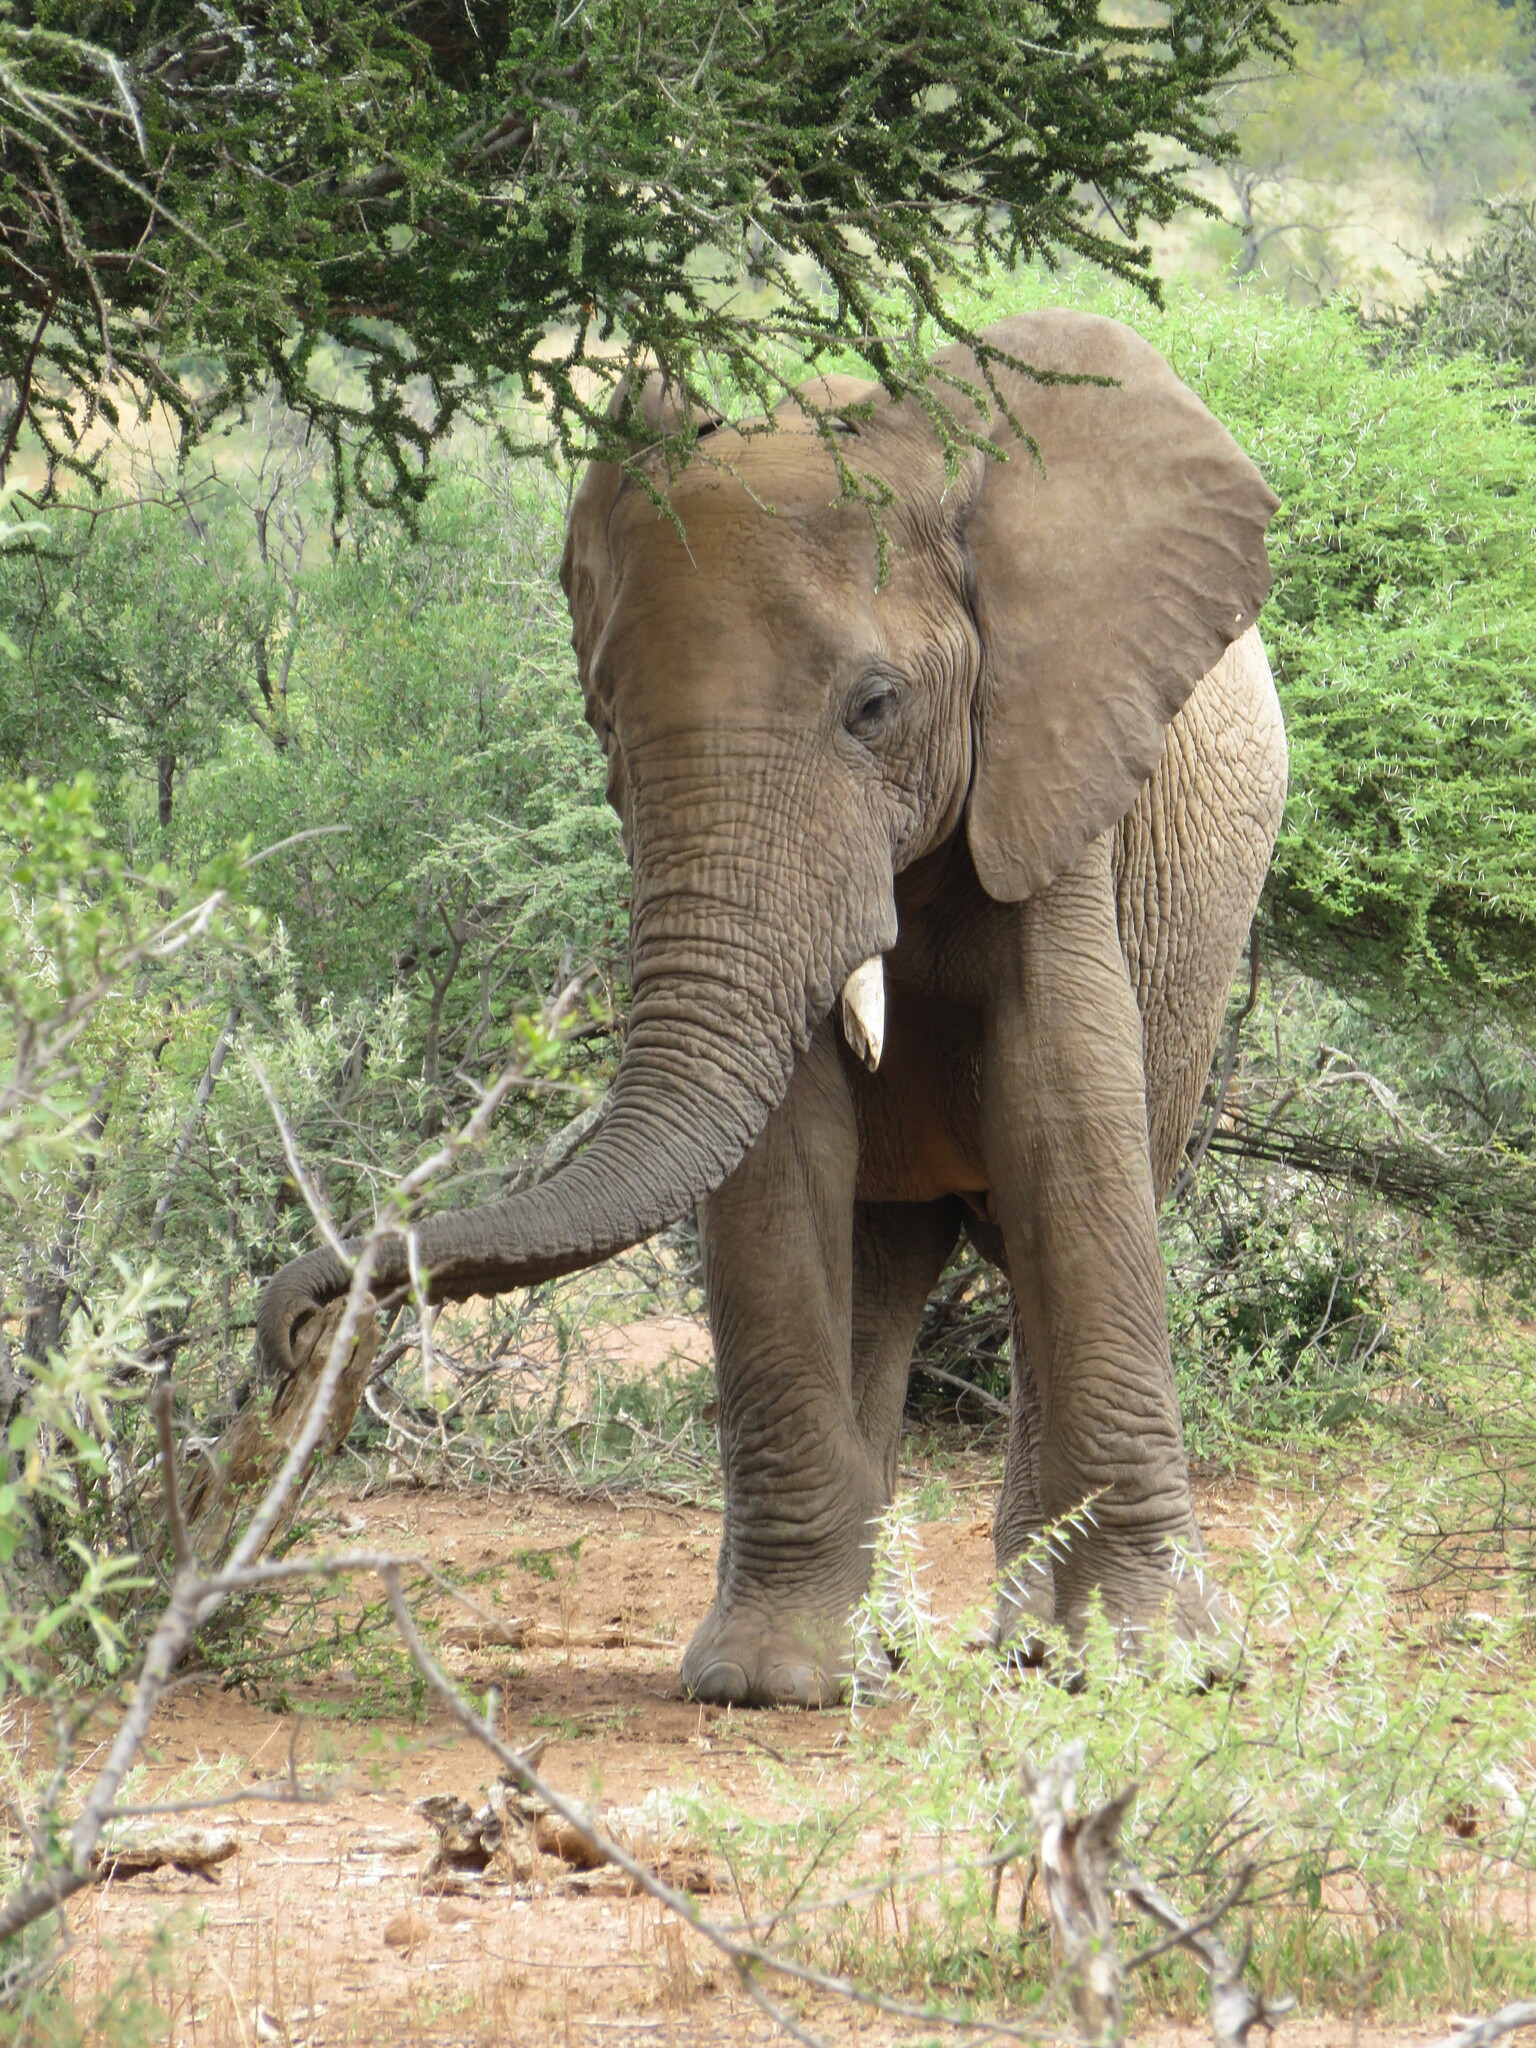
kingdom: Animalia
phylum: Chordata
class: Mammalia
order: Proboscidea
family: Elephantidae
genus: Loxodonta
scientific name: Loxodonta africana
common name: African elephant
